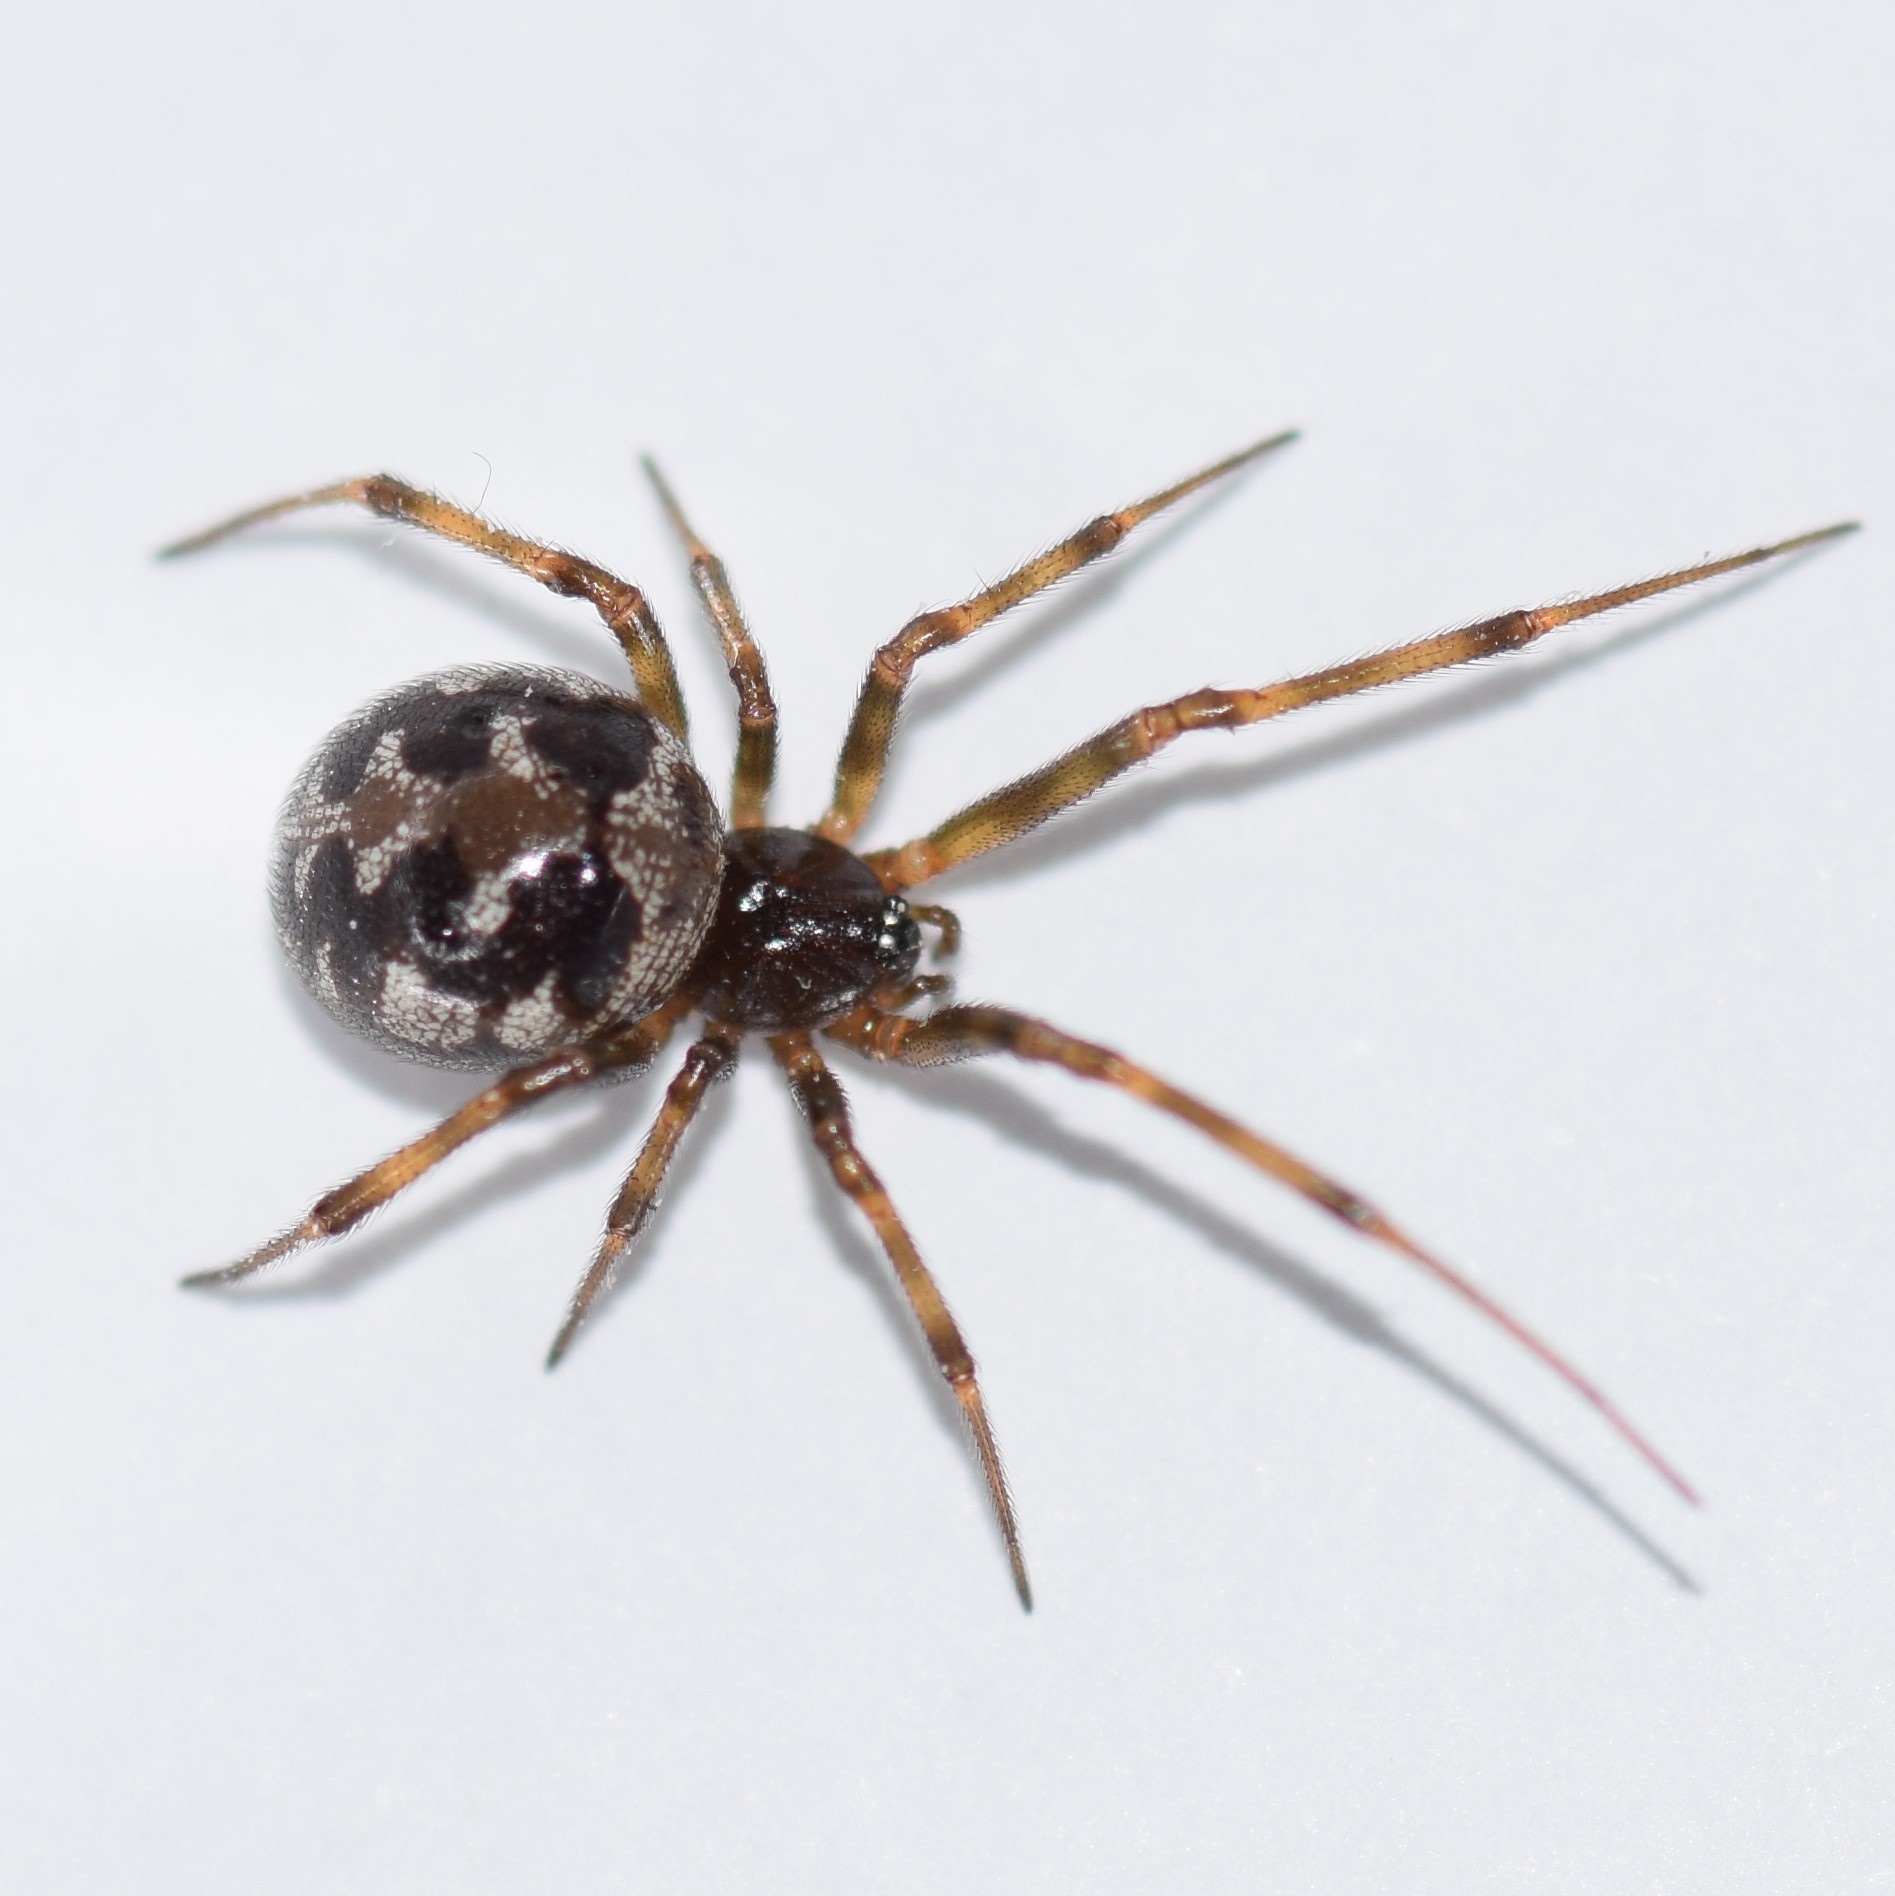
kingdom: Animalia
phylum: Arthropoda
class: Arachnida
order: Araneae
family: Theridiidae
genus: Steatoda
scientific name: Steatoda triangulosa
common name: Triangulate bud spider
